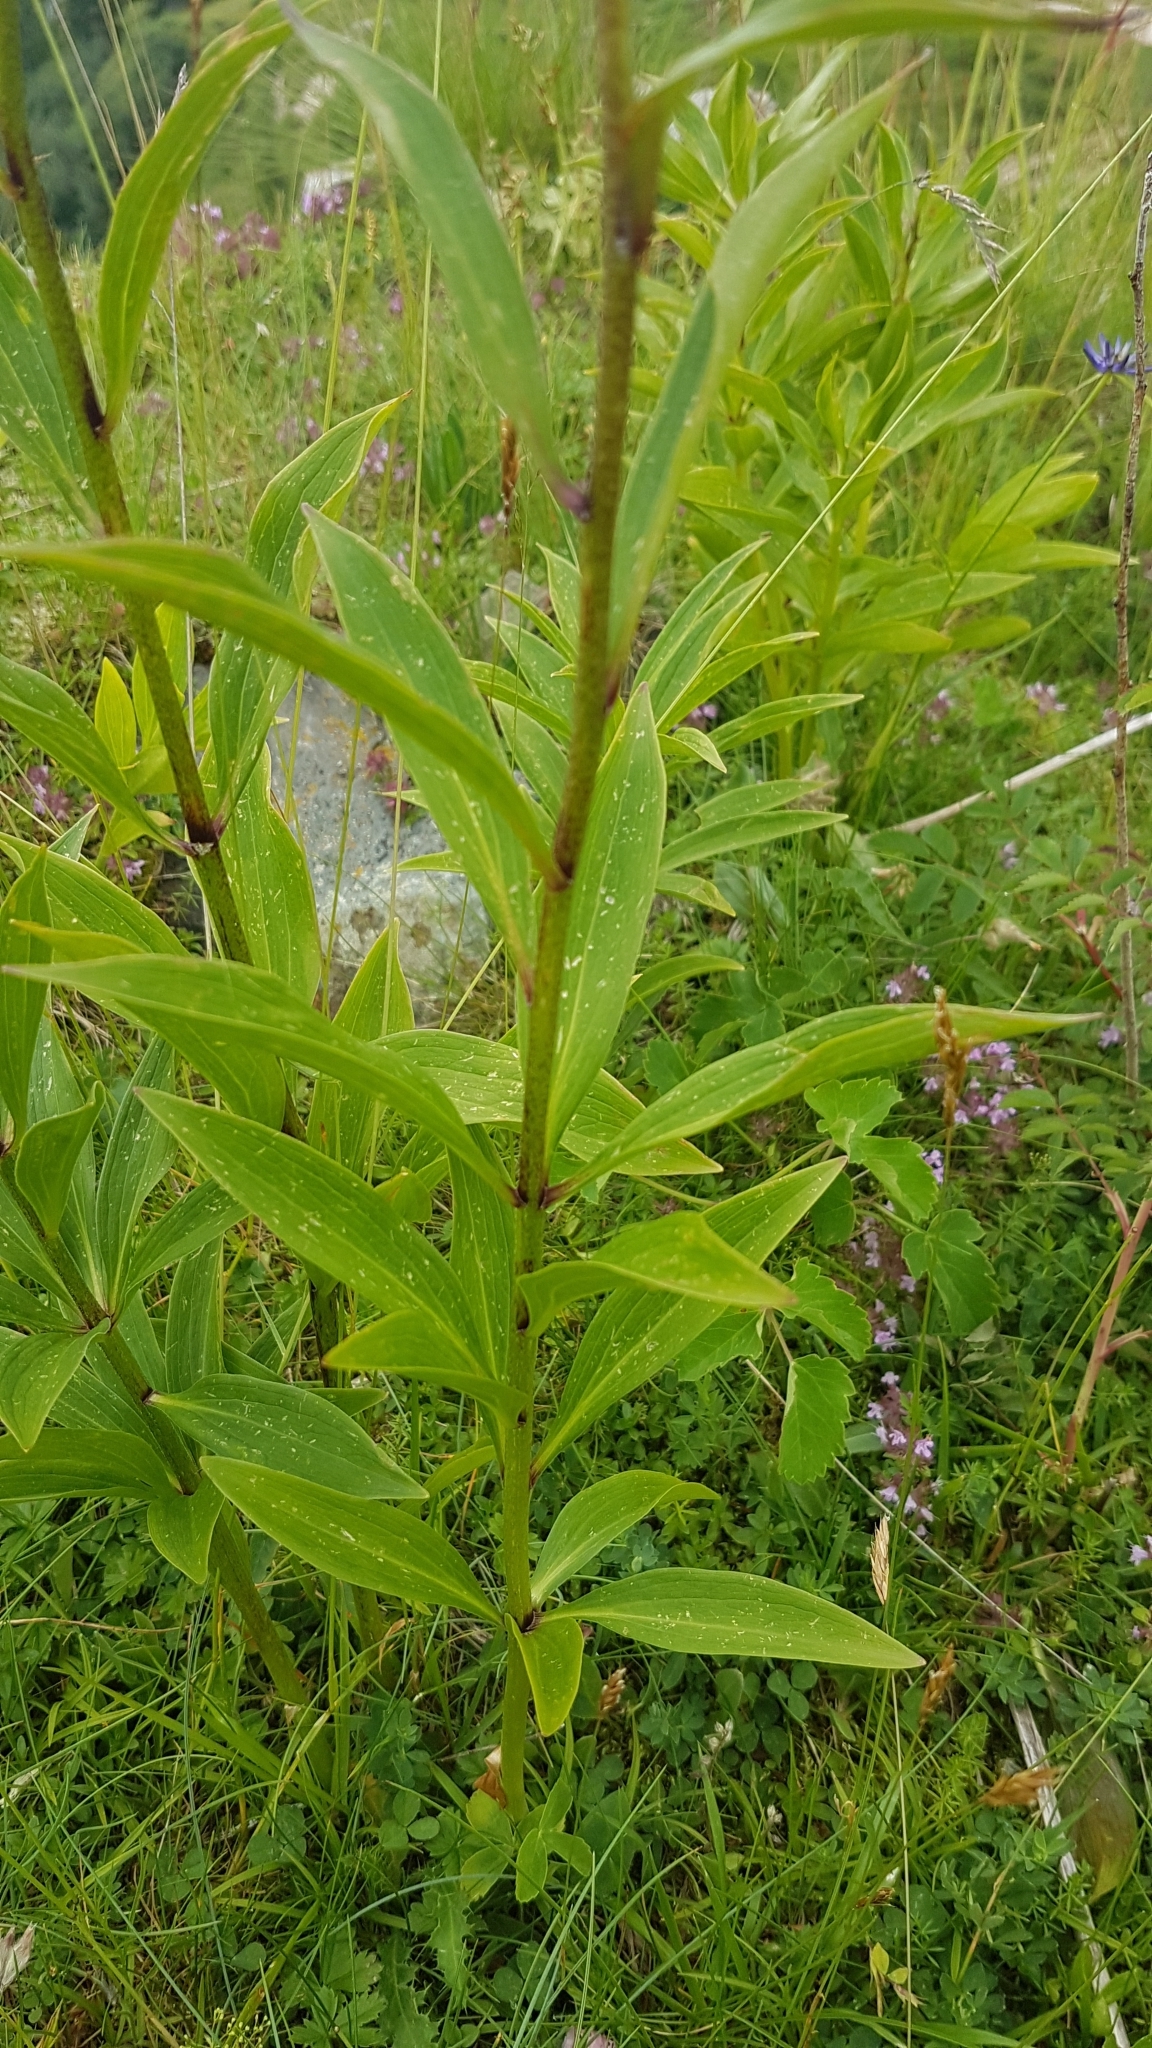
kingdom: Plantae
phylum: Tracheophyta
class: Liliopsida
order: Liliales
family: Liliaceae
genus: Lilium
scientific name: Lilium martagon
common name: Martagon lily
